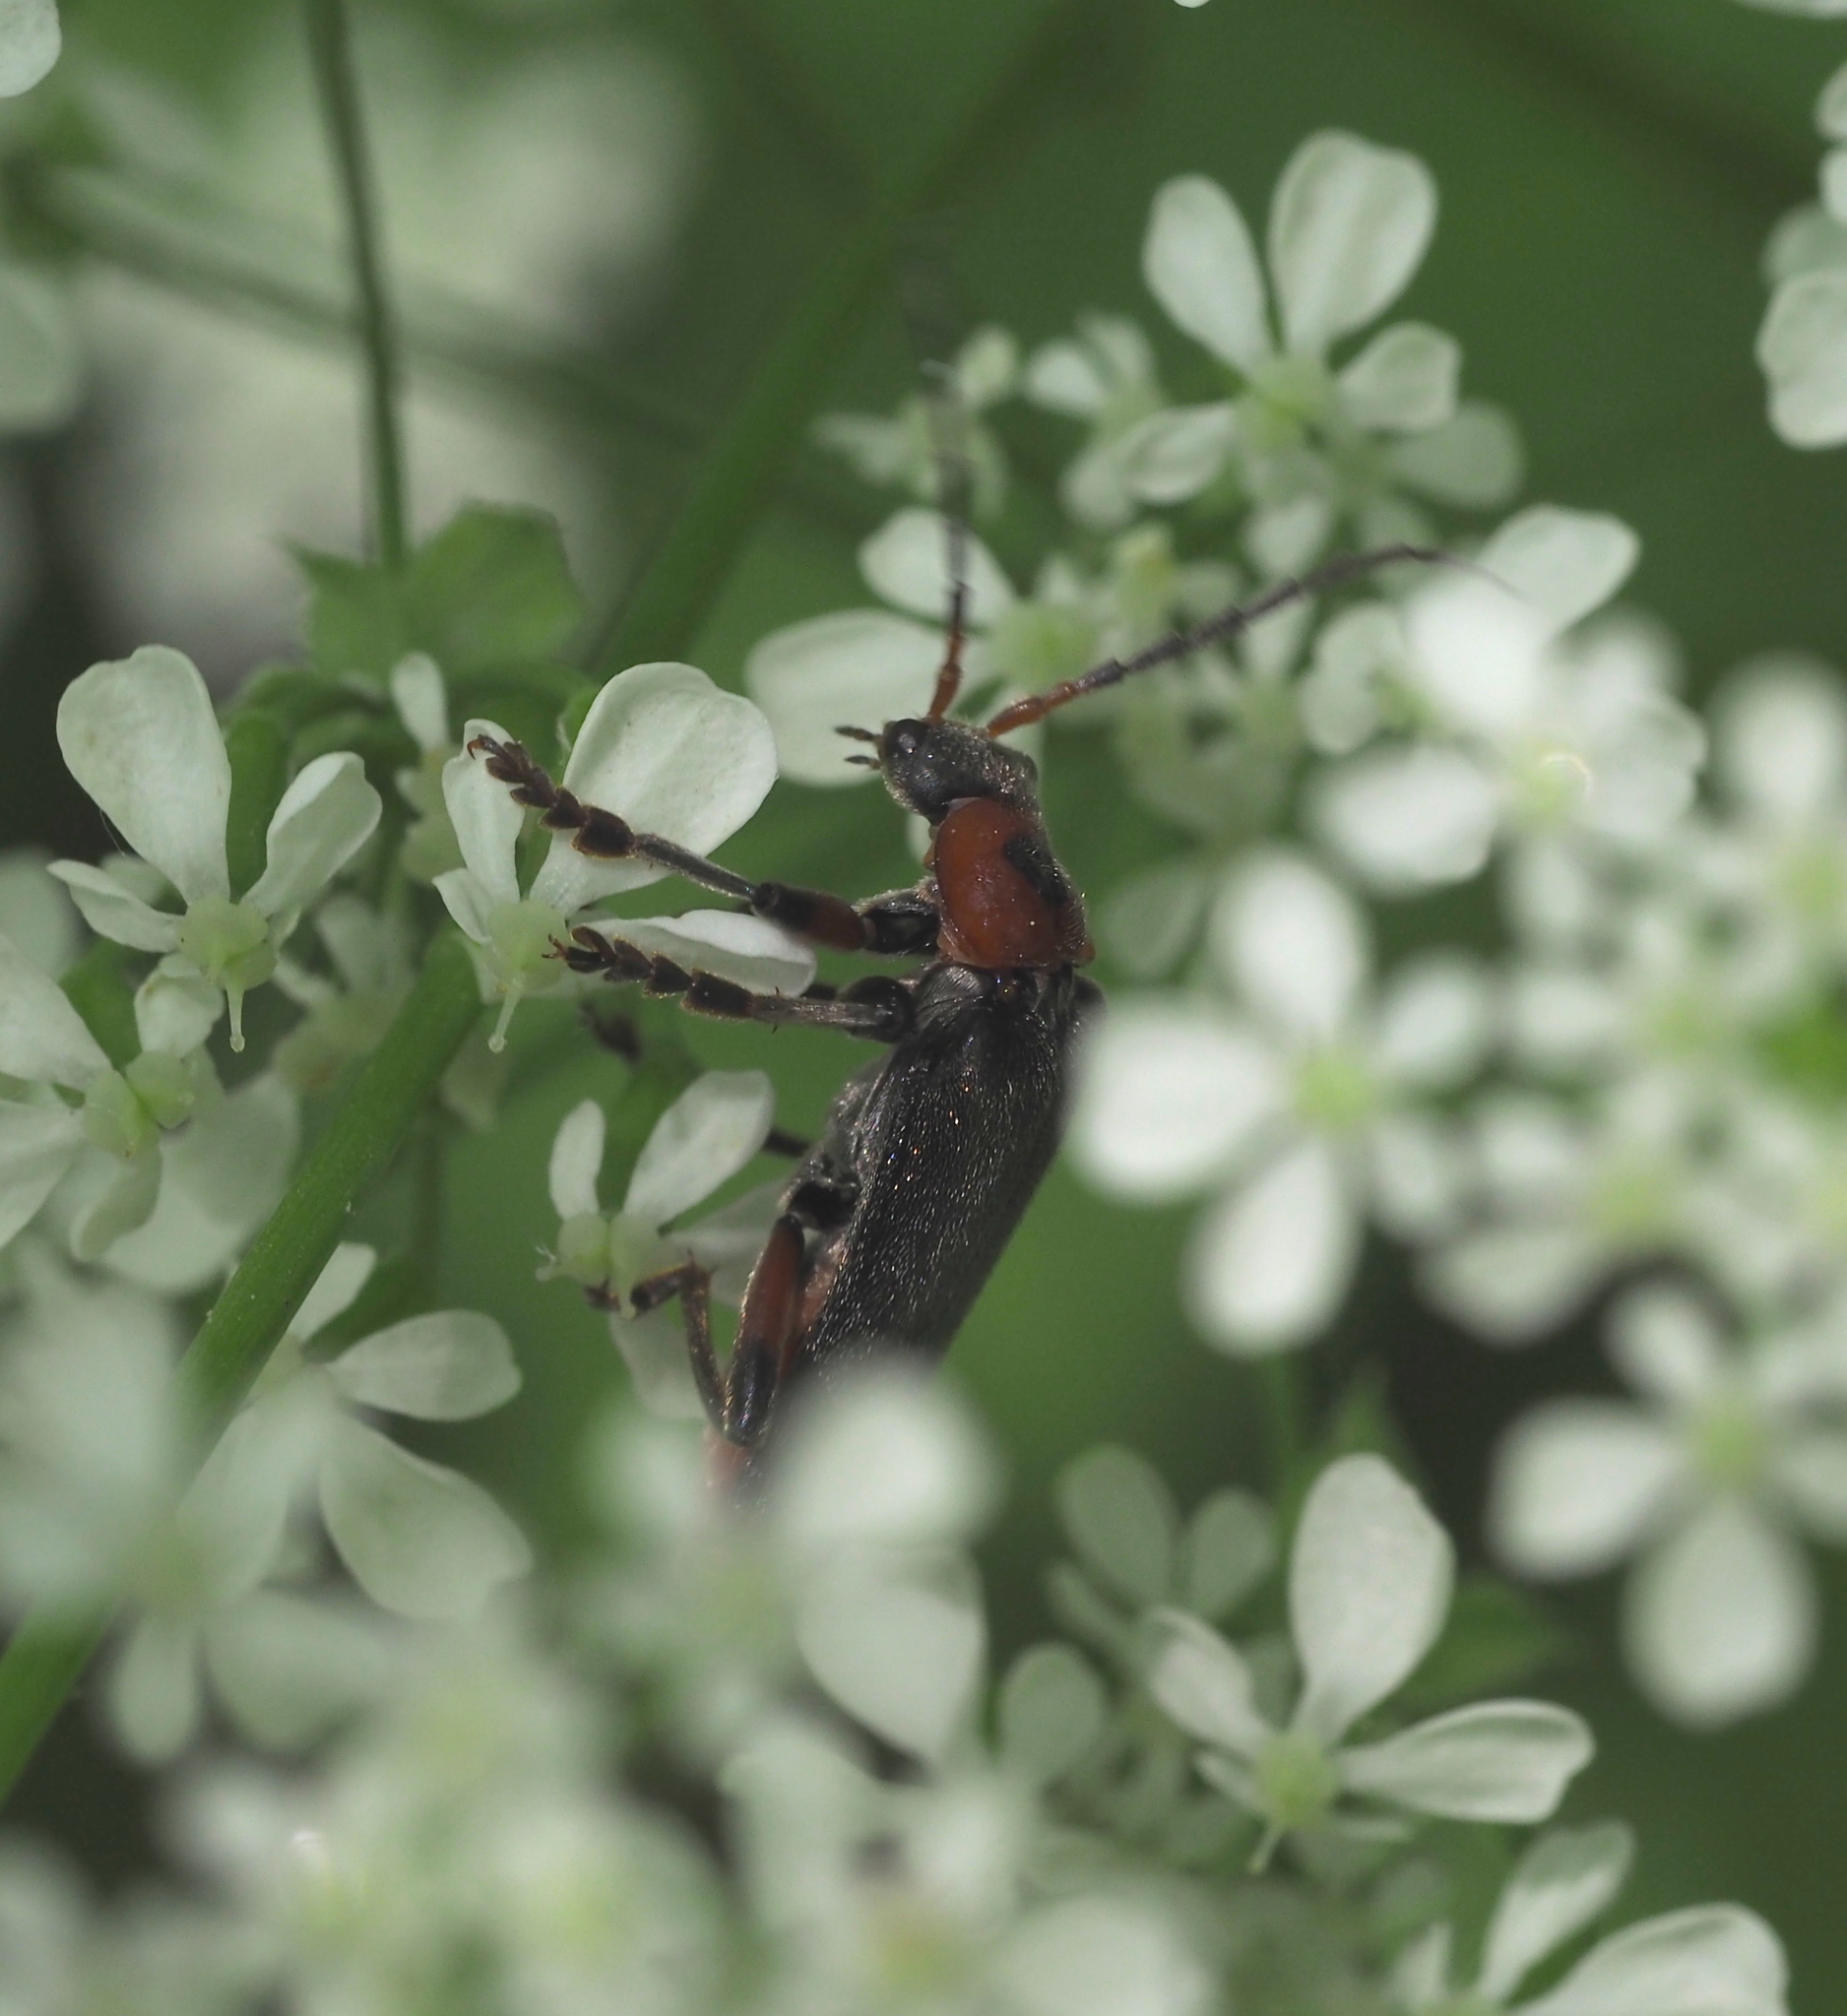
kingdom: Animalia
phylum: Arthropoda
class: Insecta
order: Coleoptera
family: Cantharidae
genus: Cantharis
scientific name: Cantharis rustica
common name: Soldier beetle
